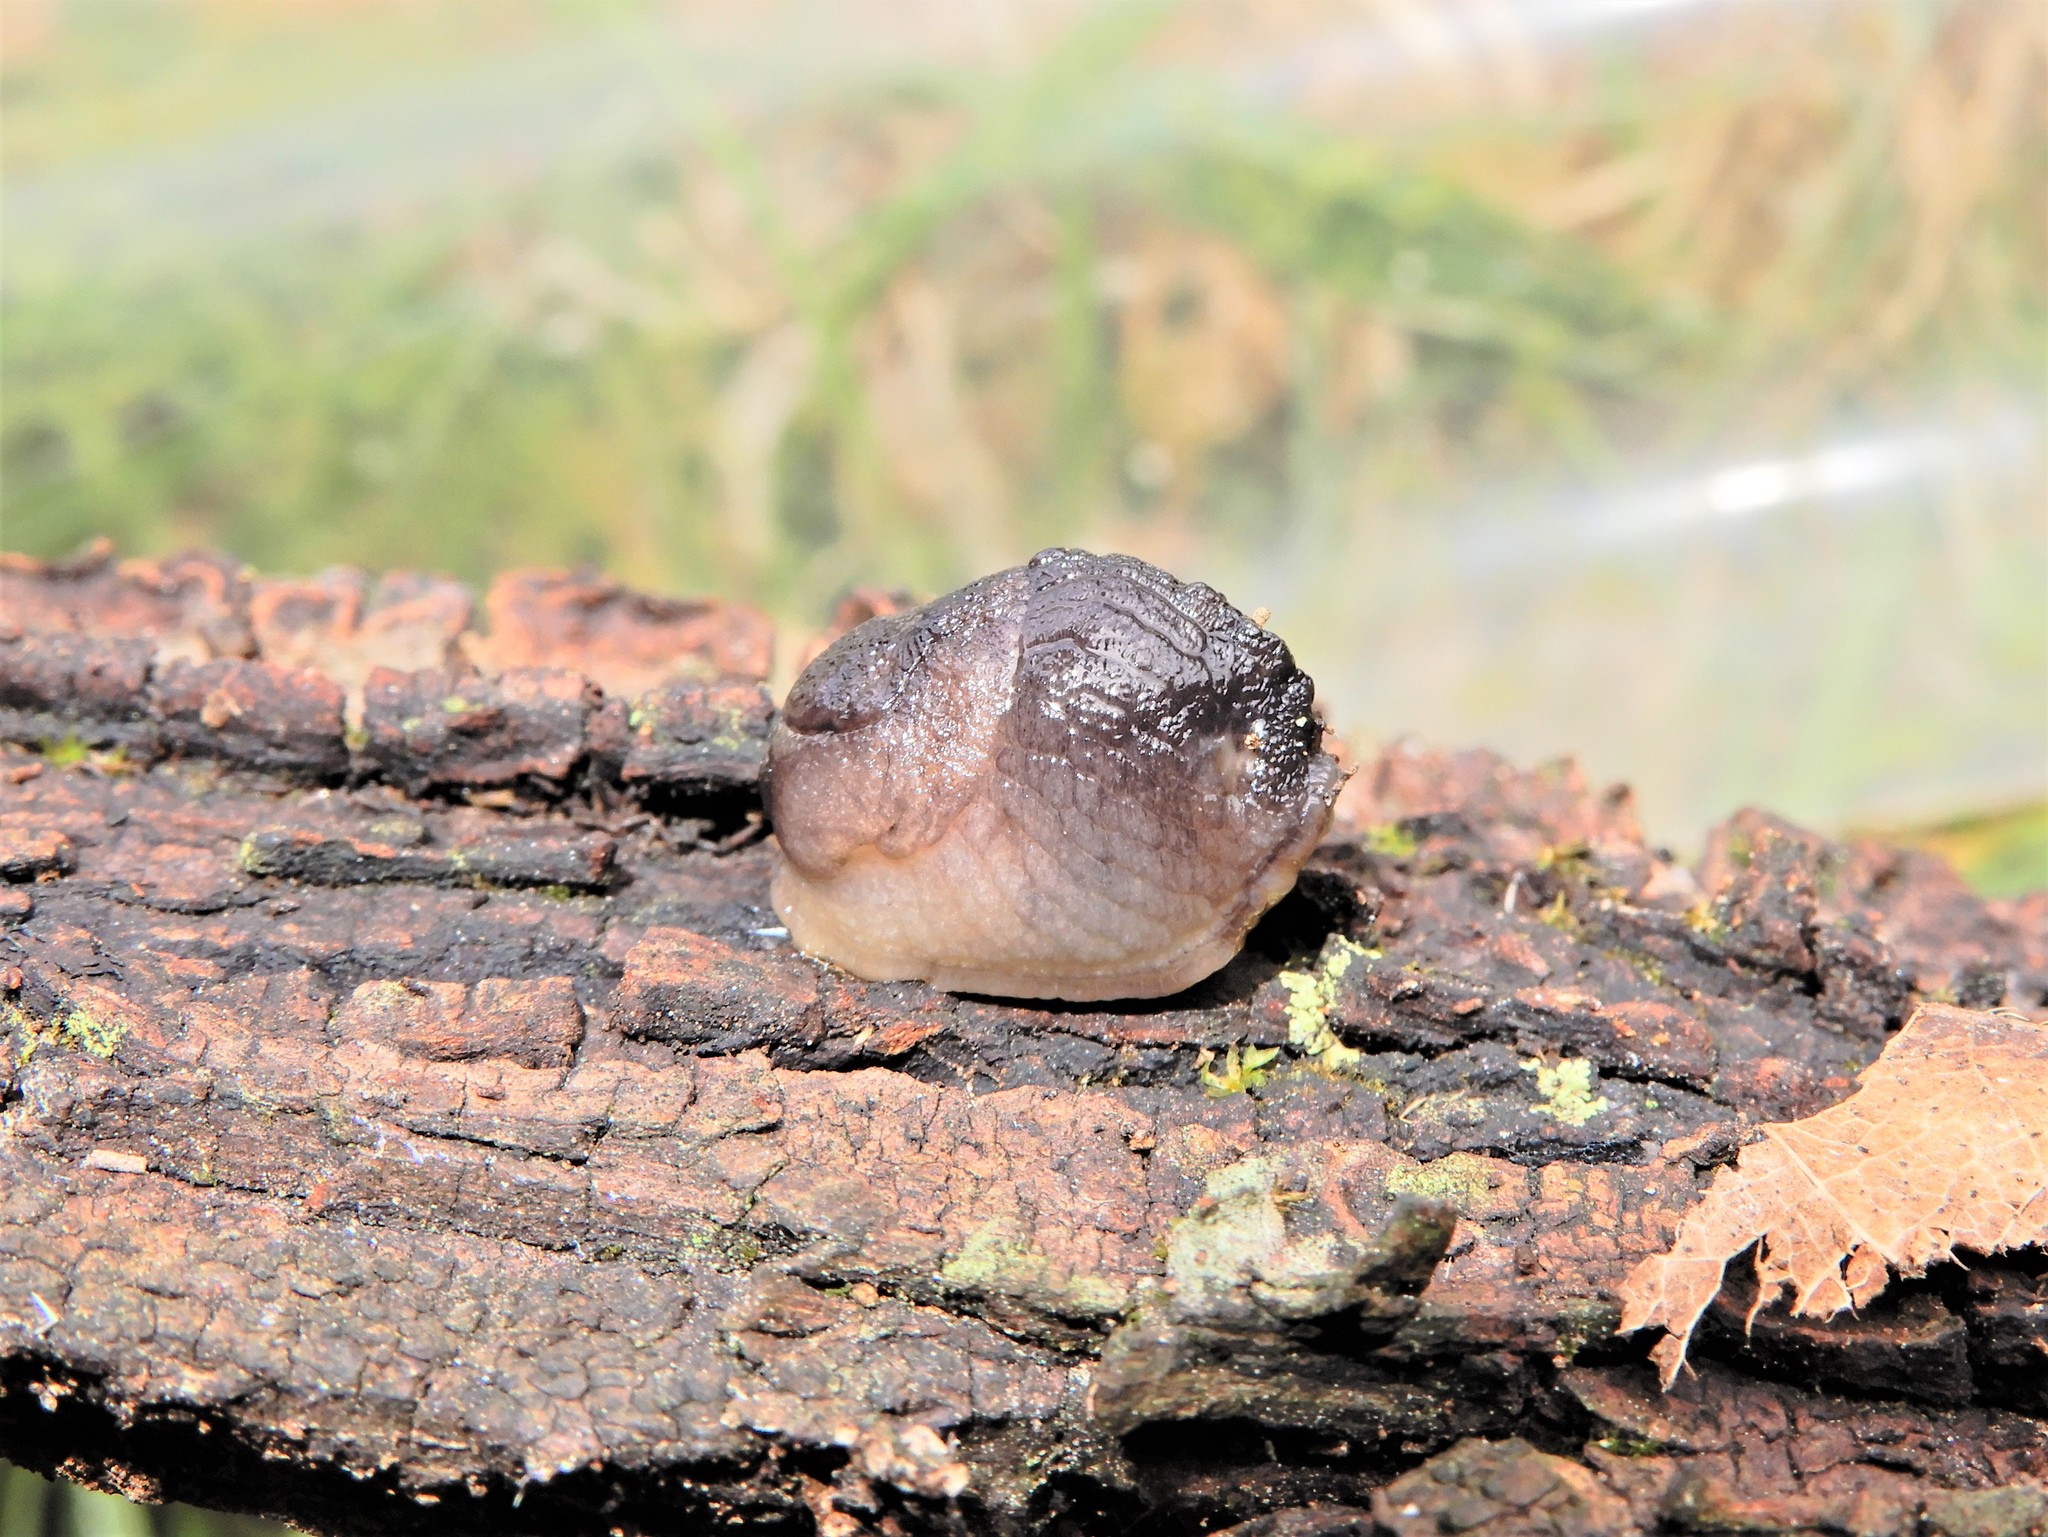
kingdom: Animalia
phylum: Mollusca
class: Gastropoda
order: Stylommatophora
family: Milacidae
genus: Milax
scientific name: Milax gagates
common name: Greenhouse slug
